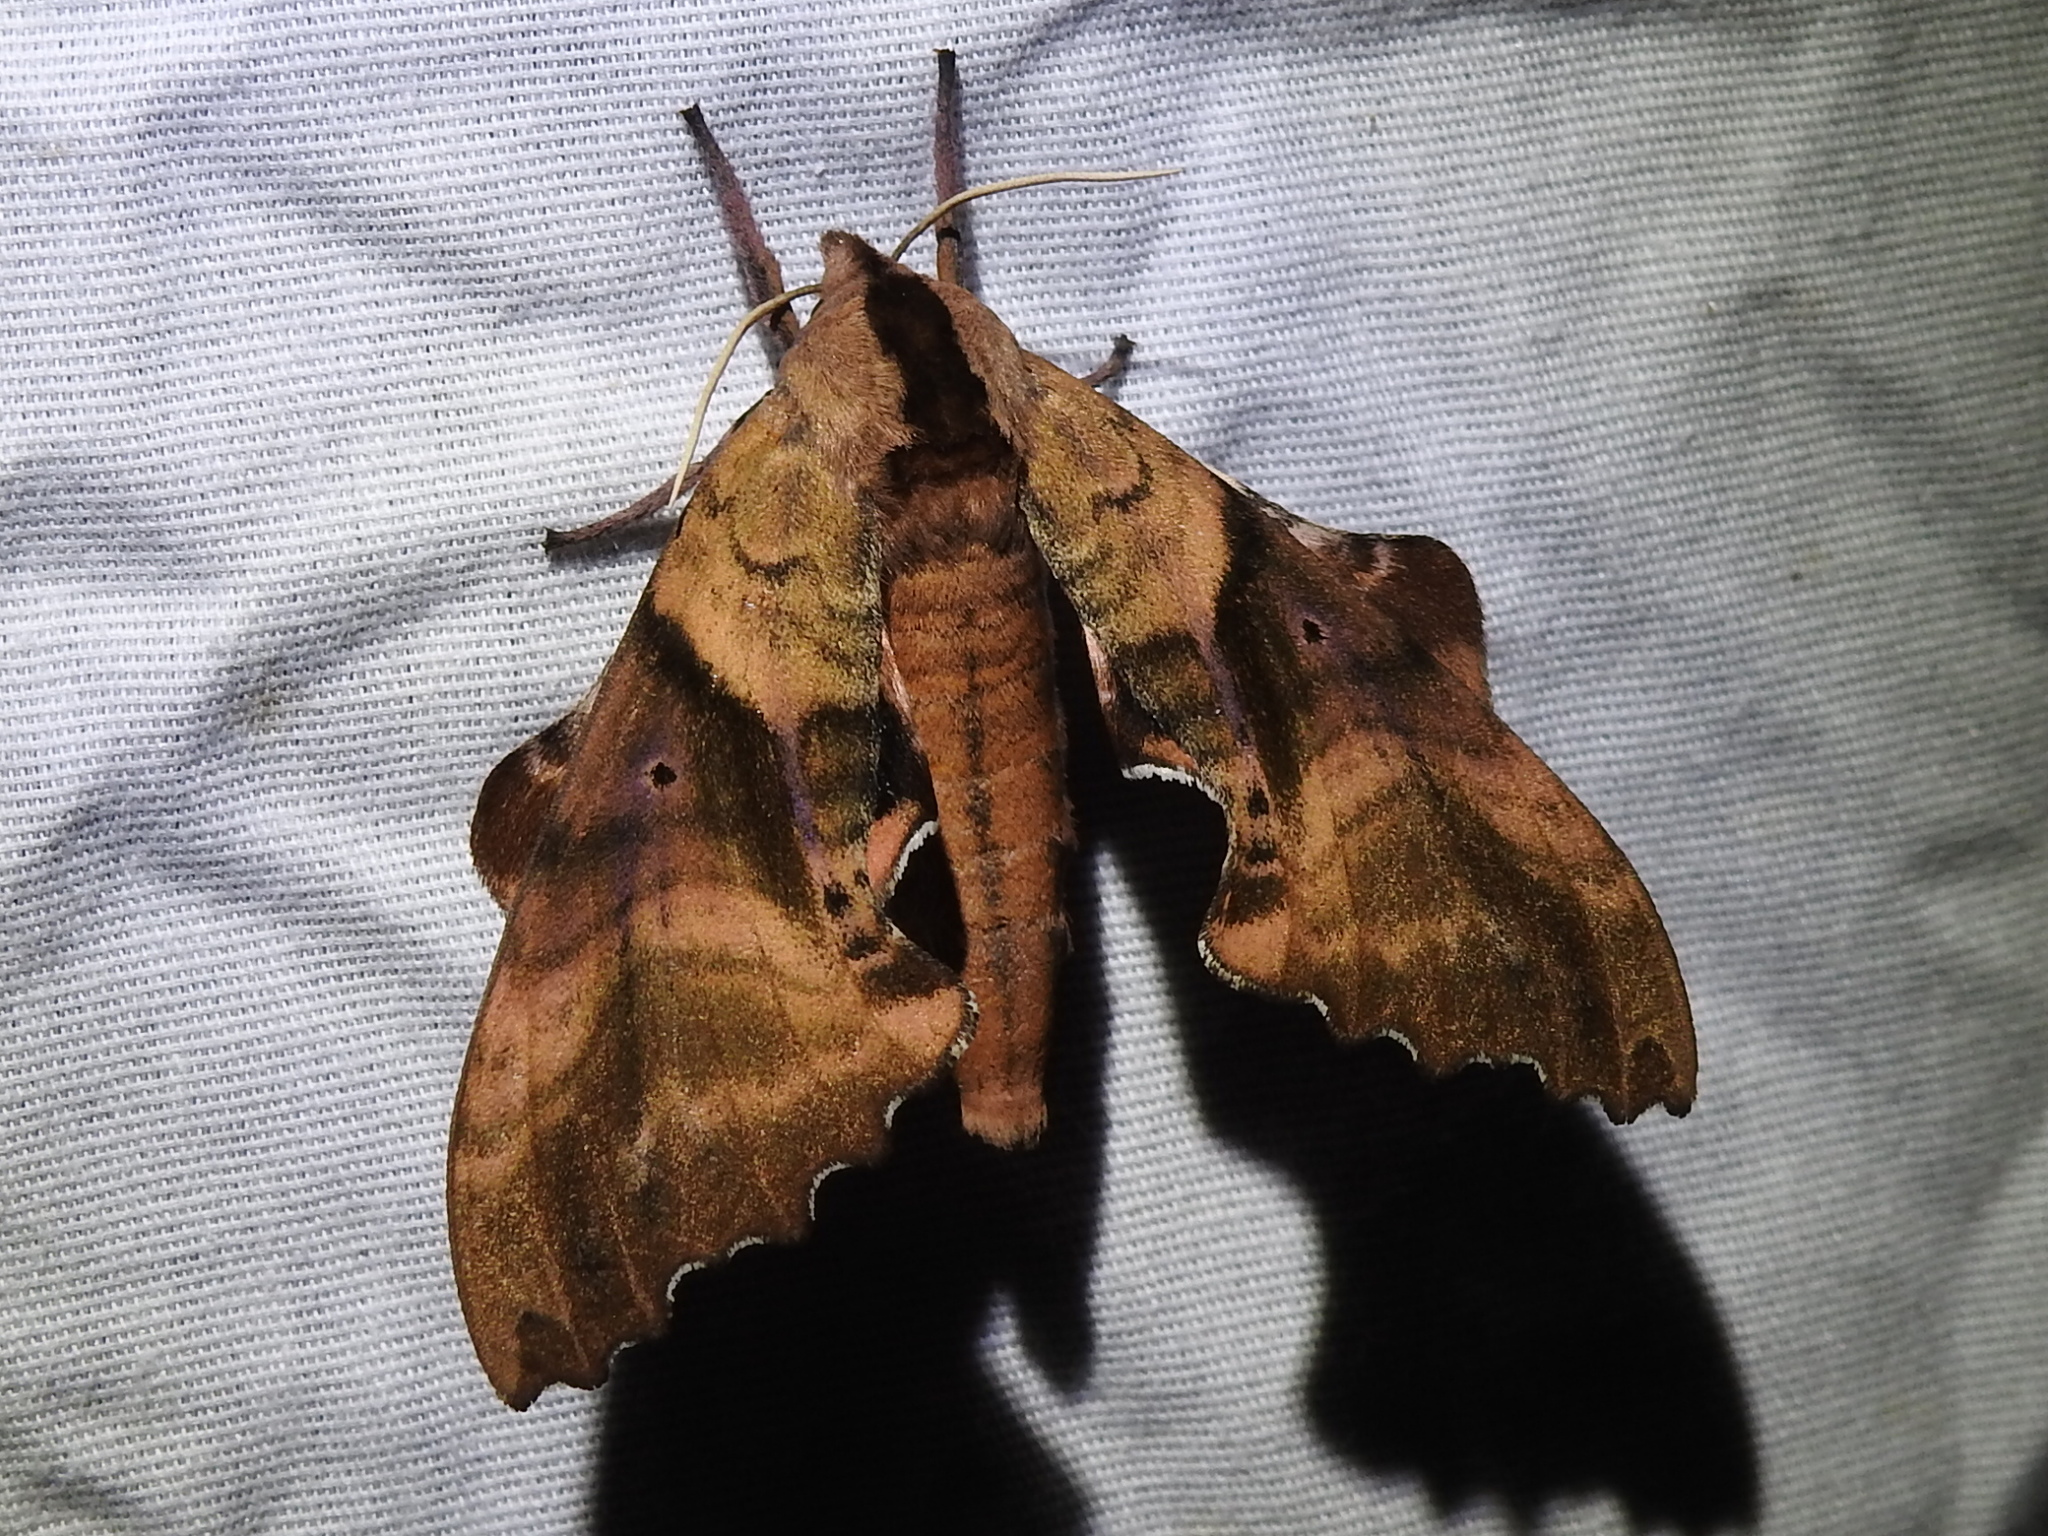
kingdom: Animalia
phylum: Arthropoda
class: Insecta
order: Lepidoptera
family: Sphingidae
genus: Paonias
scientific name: Paonias excaecata
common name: Blind-eyed sphinx
